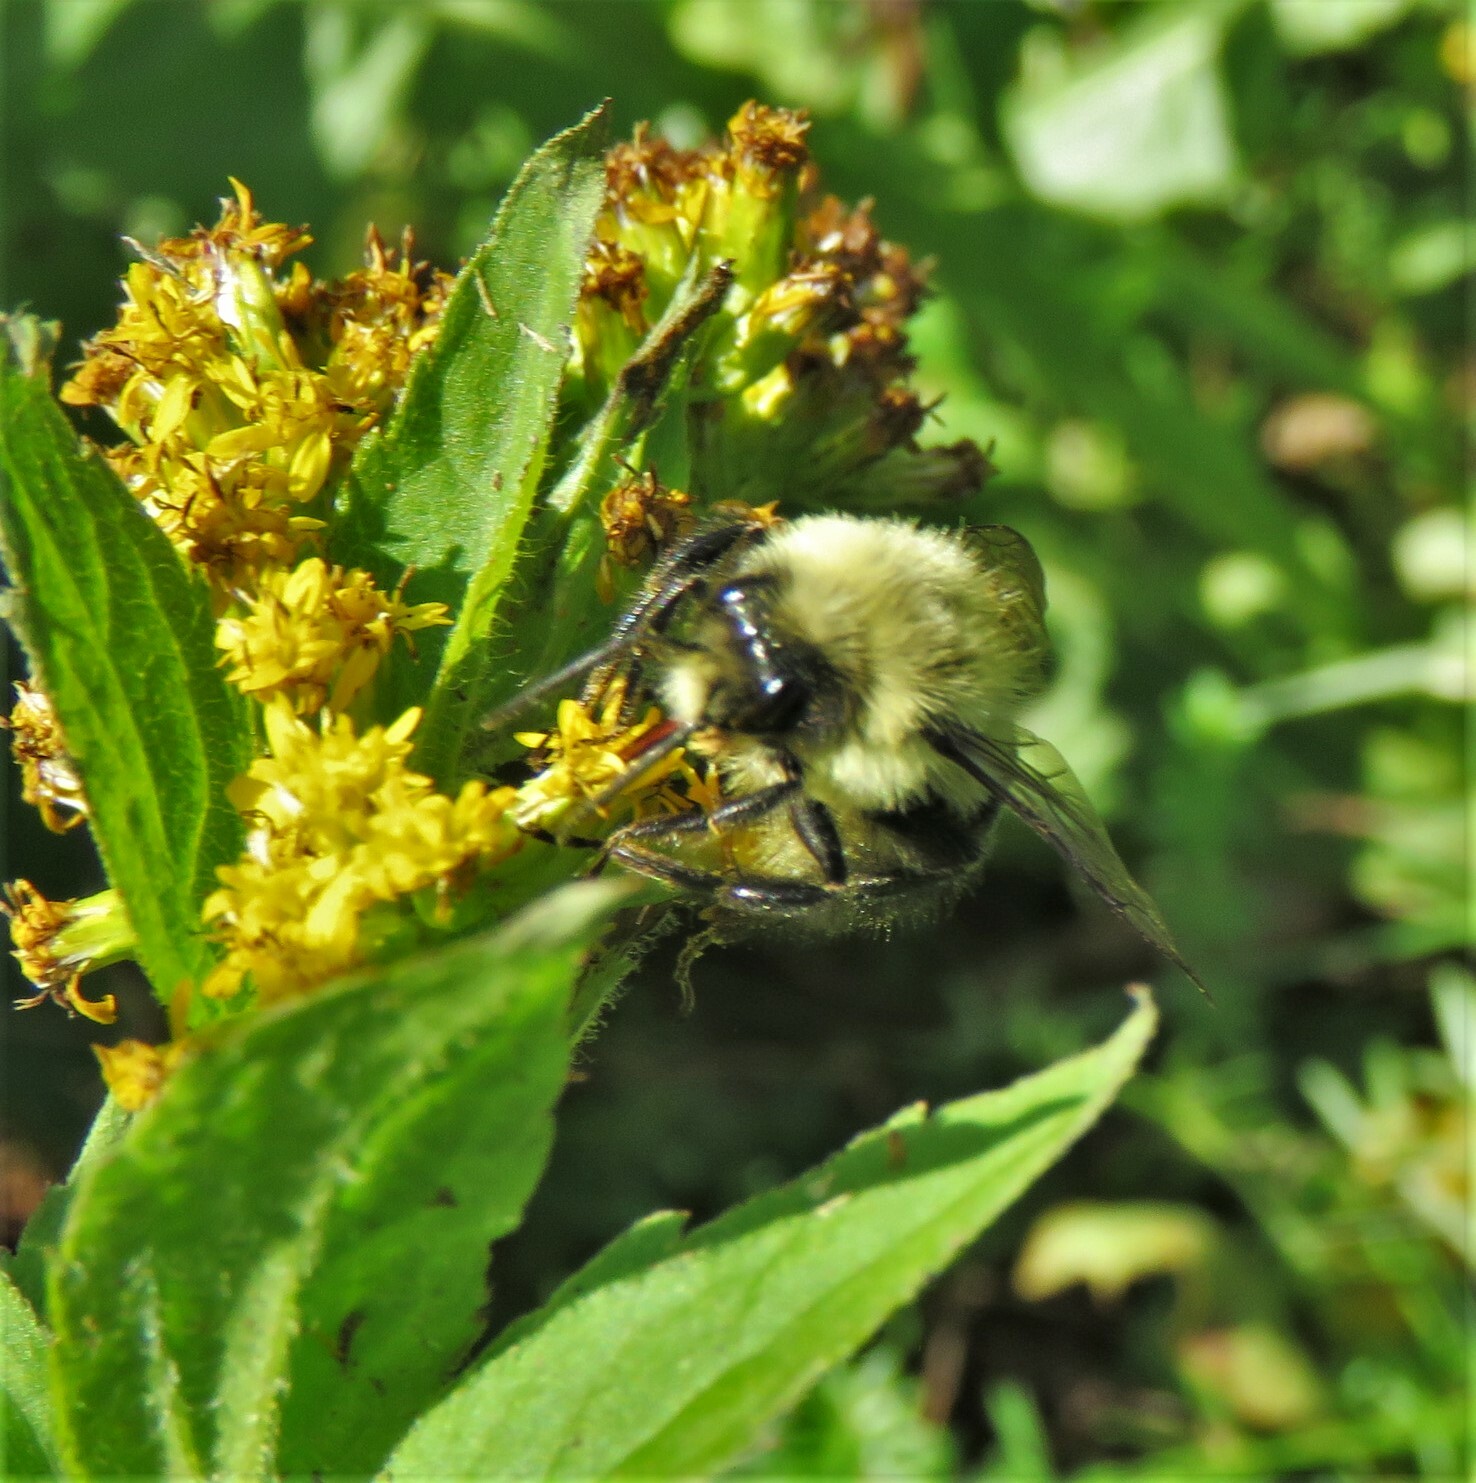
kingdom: Animalia
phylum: Arthropoda
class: Insecta
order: Hymenoptera
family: Apidae
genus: Bombus
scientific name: Bombus impatiens
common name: Common eastern bumble bee
